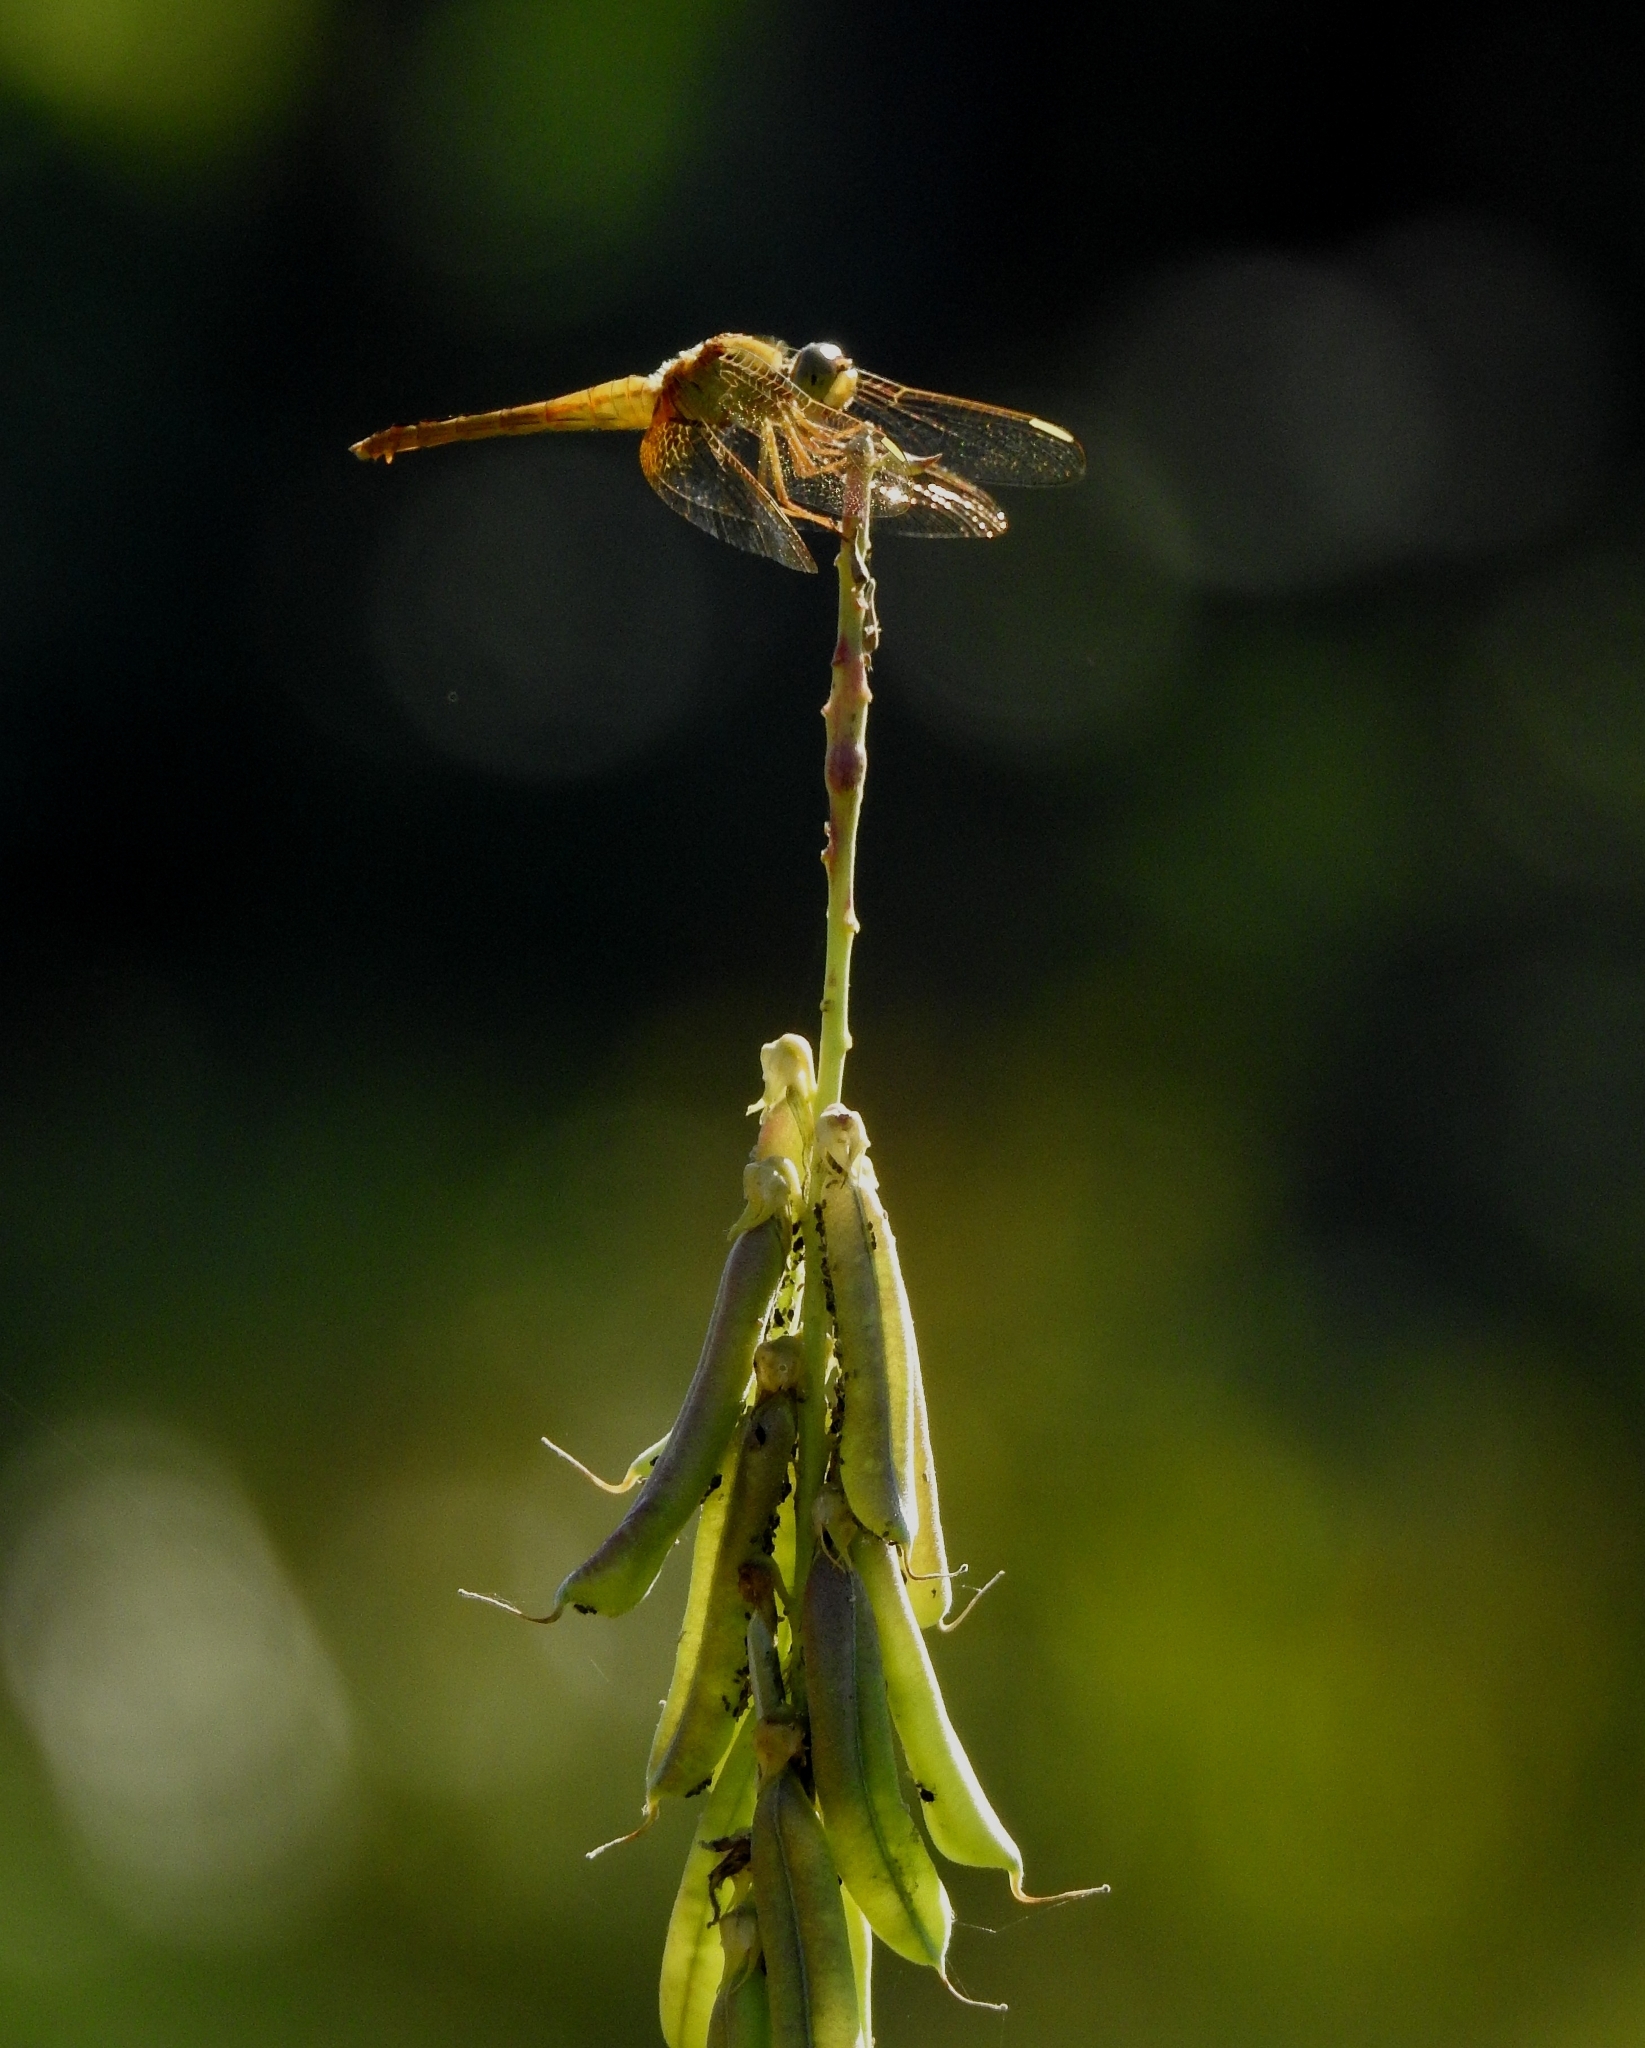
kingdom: Animalia
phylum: Arthropoda
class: Insecta
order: Odonata
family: Libellulidae
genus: Crocothemis
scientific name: Crocothemis servilia
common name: Scarlet skimmer
